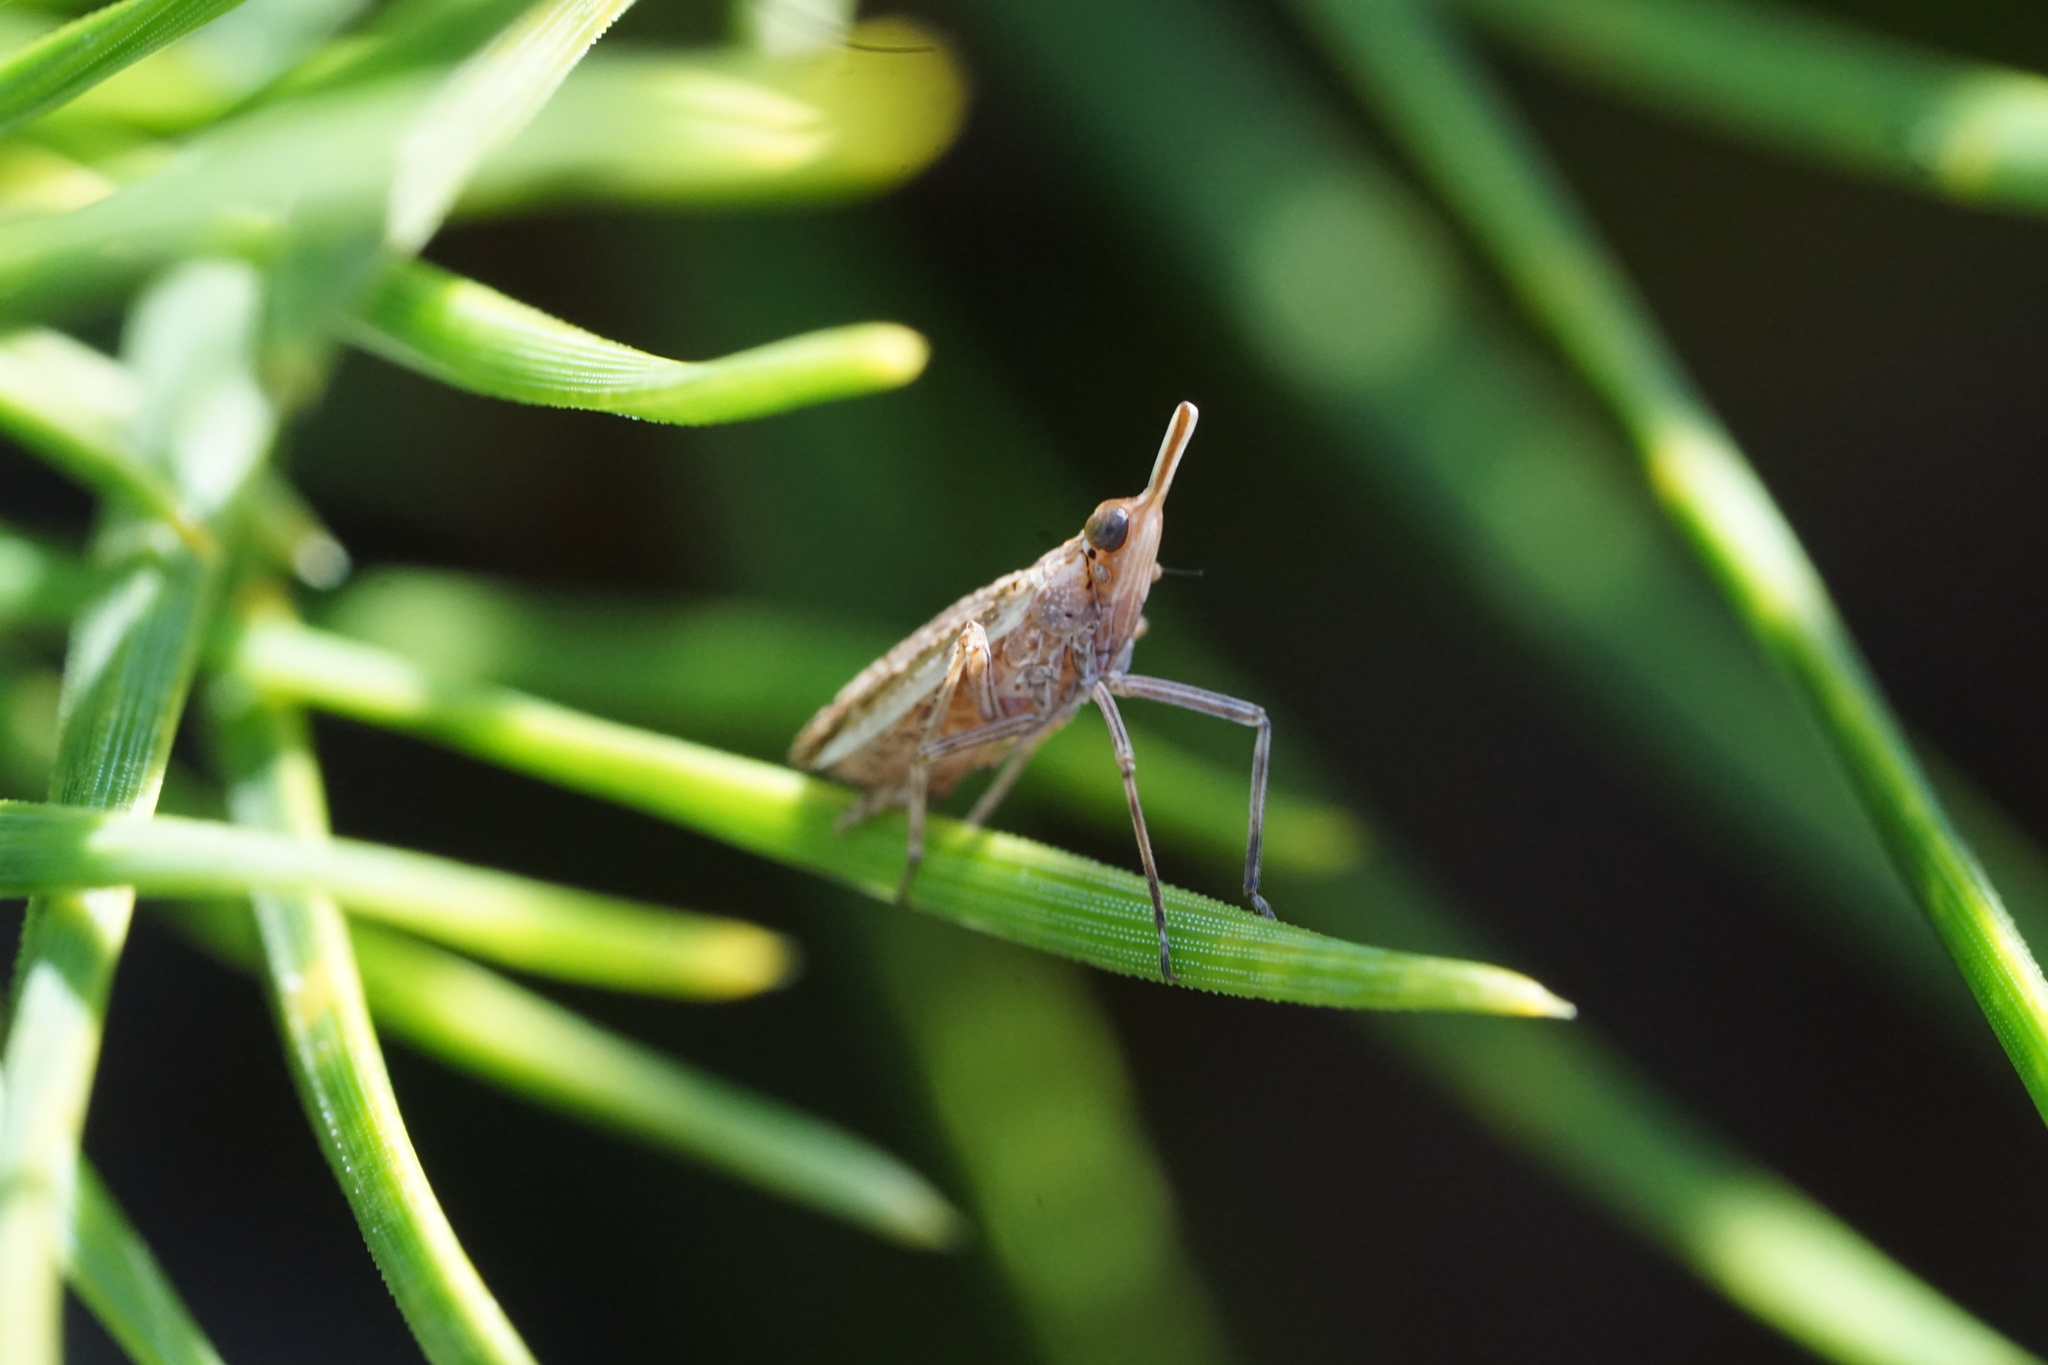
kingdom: Animalia
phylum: Arthropoda
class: Insecta
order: Hemiptera
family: Dictyopharidae
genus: Scolops
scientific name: Scolops angustatus
